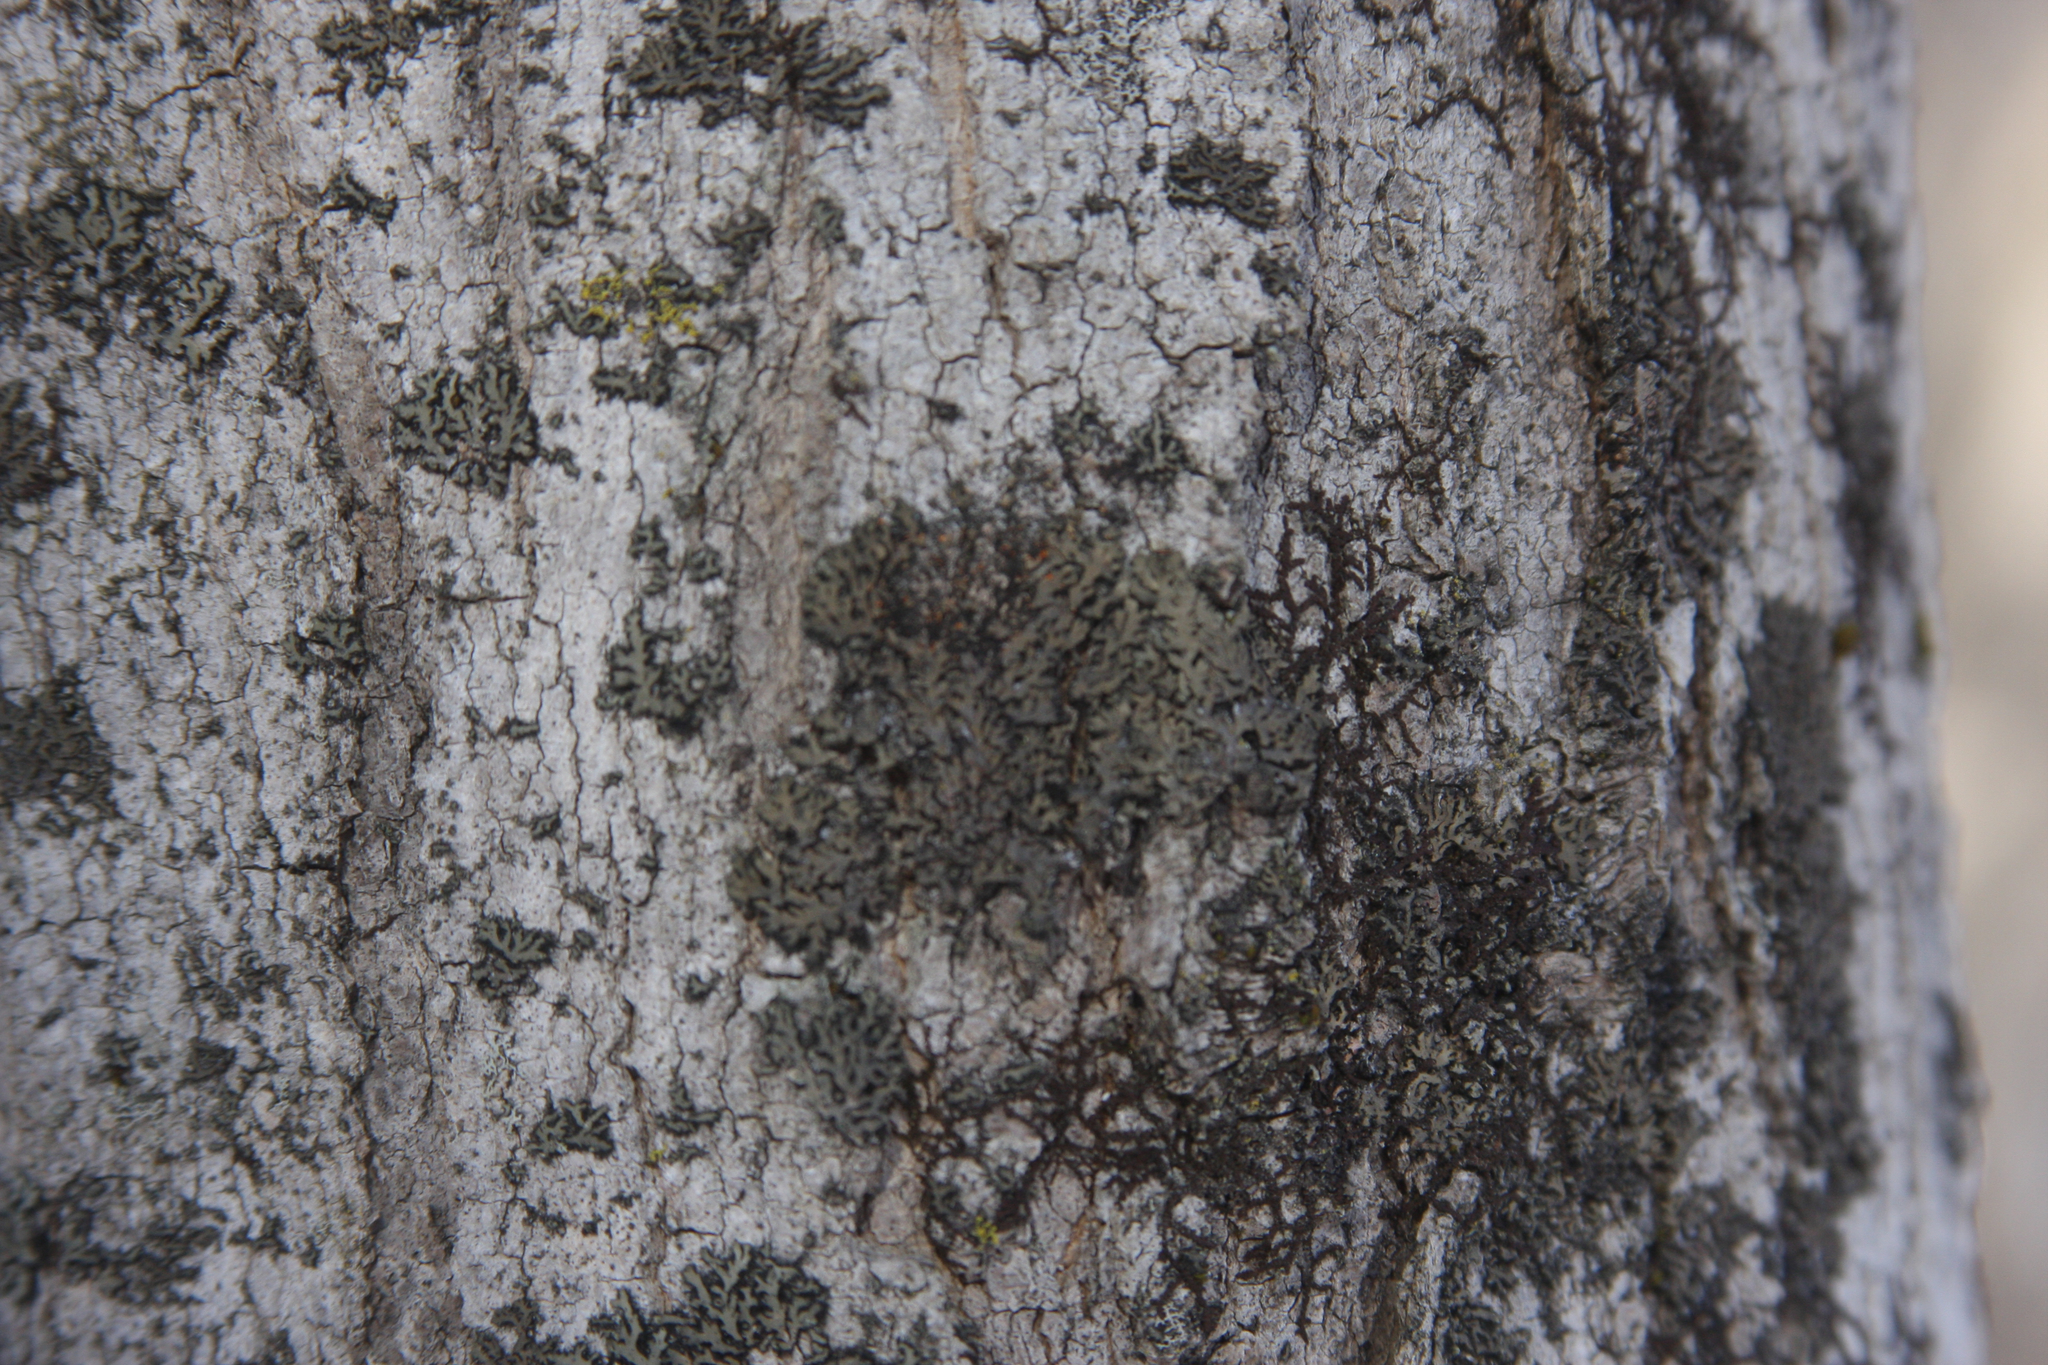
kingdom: Fungi
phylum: Ascomycota
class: Lecanoromycetes
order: Caliciales
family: Physciaceae
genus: Phaeophyscia
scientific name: Phaeophyscia rubropulchra
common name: Orange-cored shadow lichen
